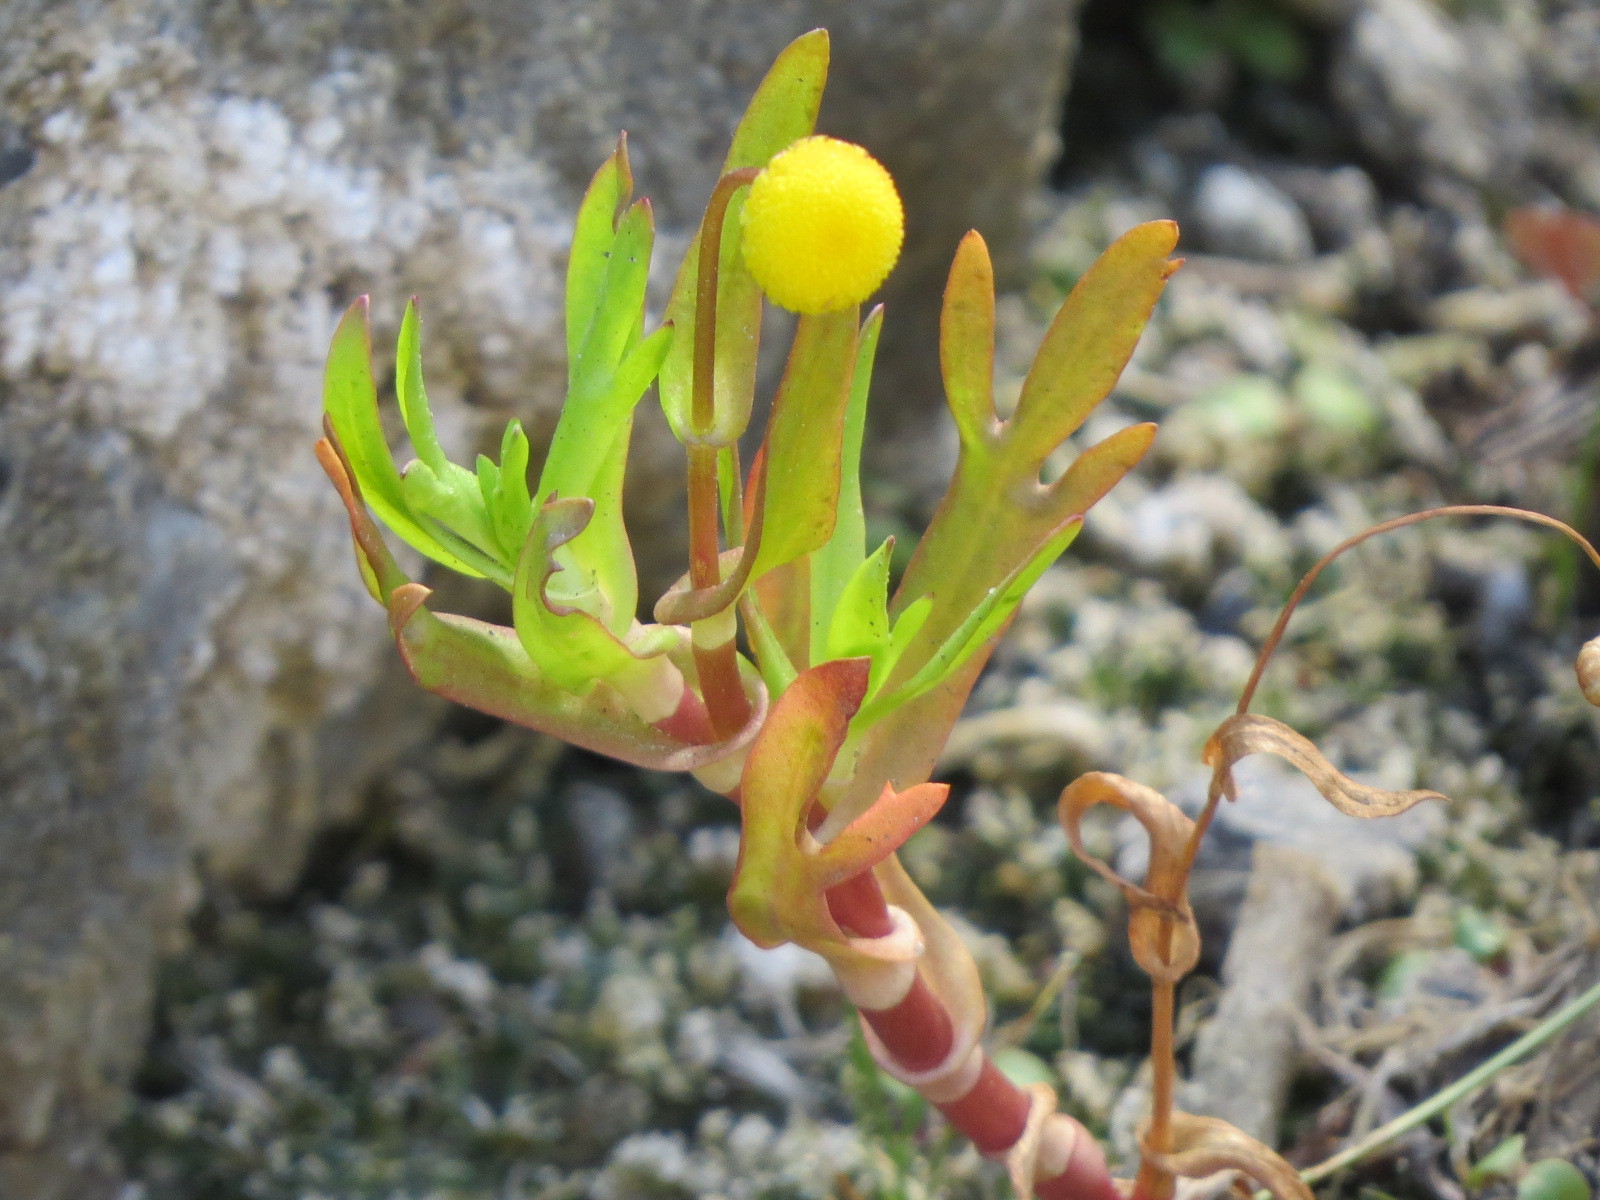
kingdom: Plantae
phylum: Tracheophyta
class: Magnoliopsida
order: Asterales
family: Asteraceae
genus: Cotula
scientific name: Cotula coronopifolia
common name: Buttonweed
